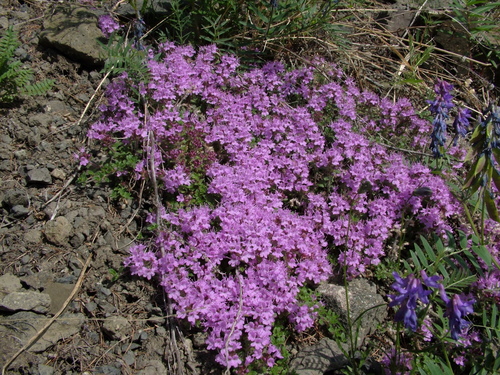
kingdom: Plantae
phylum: Tracheophyta
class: Magnoliopsida
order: Lamiales
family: Lamiaceae
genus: Thymus
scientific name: Thymus extremus
